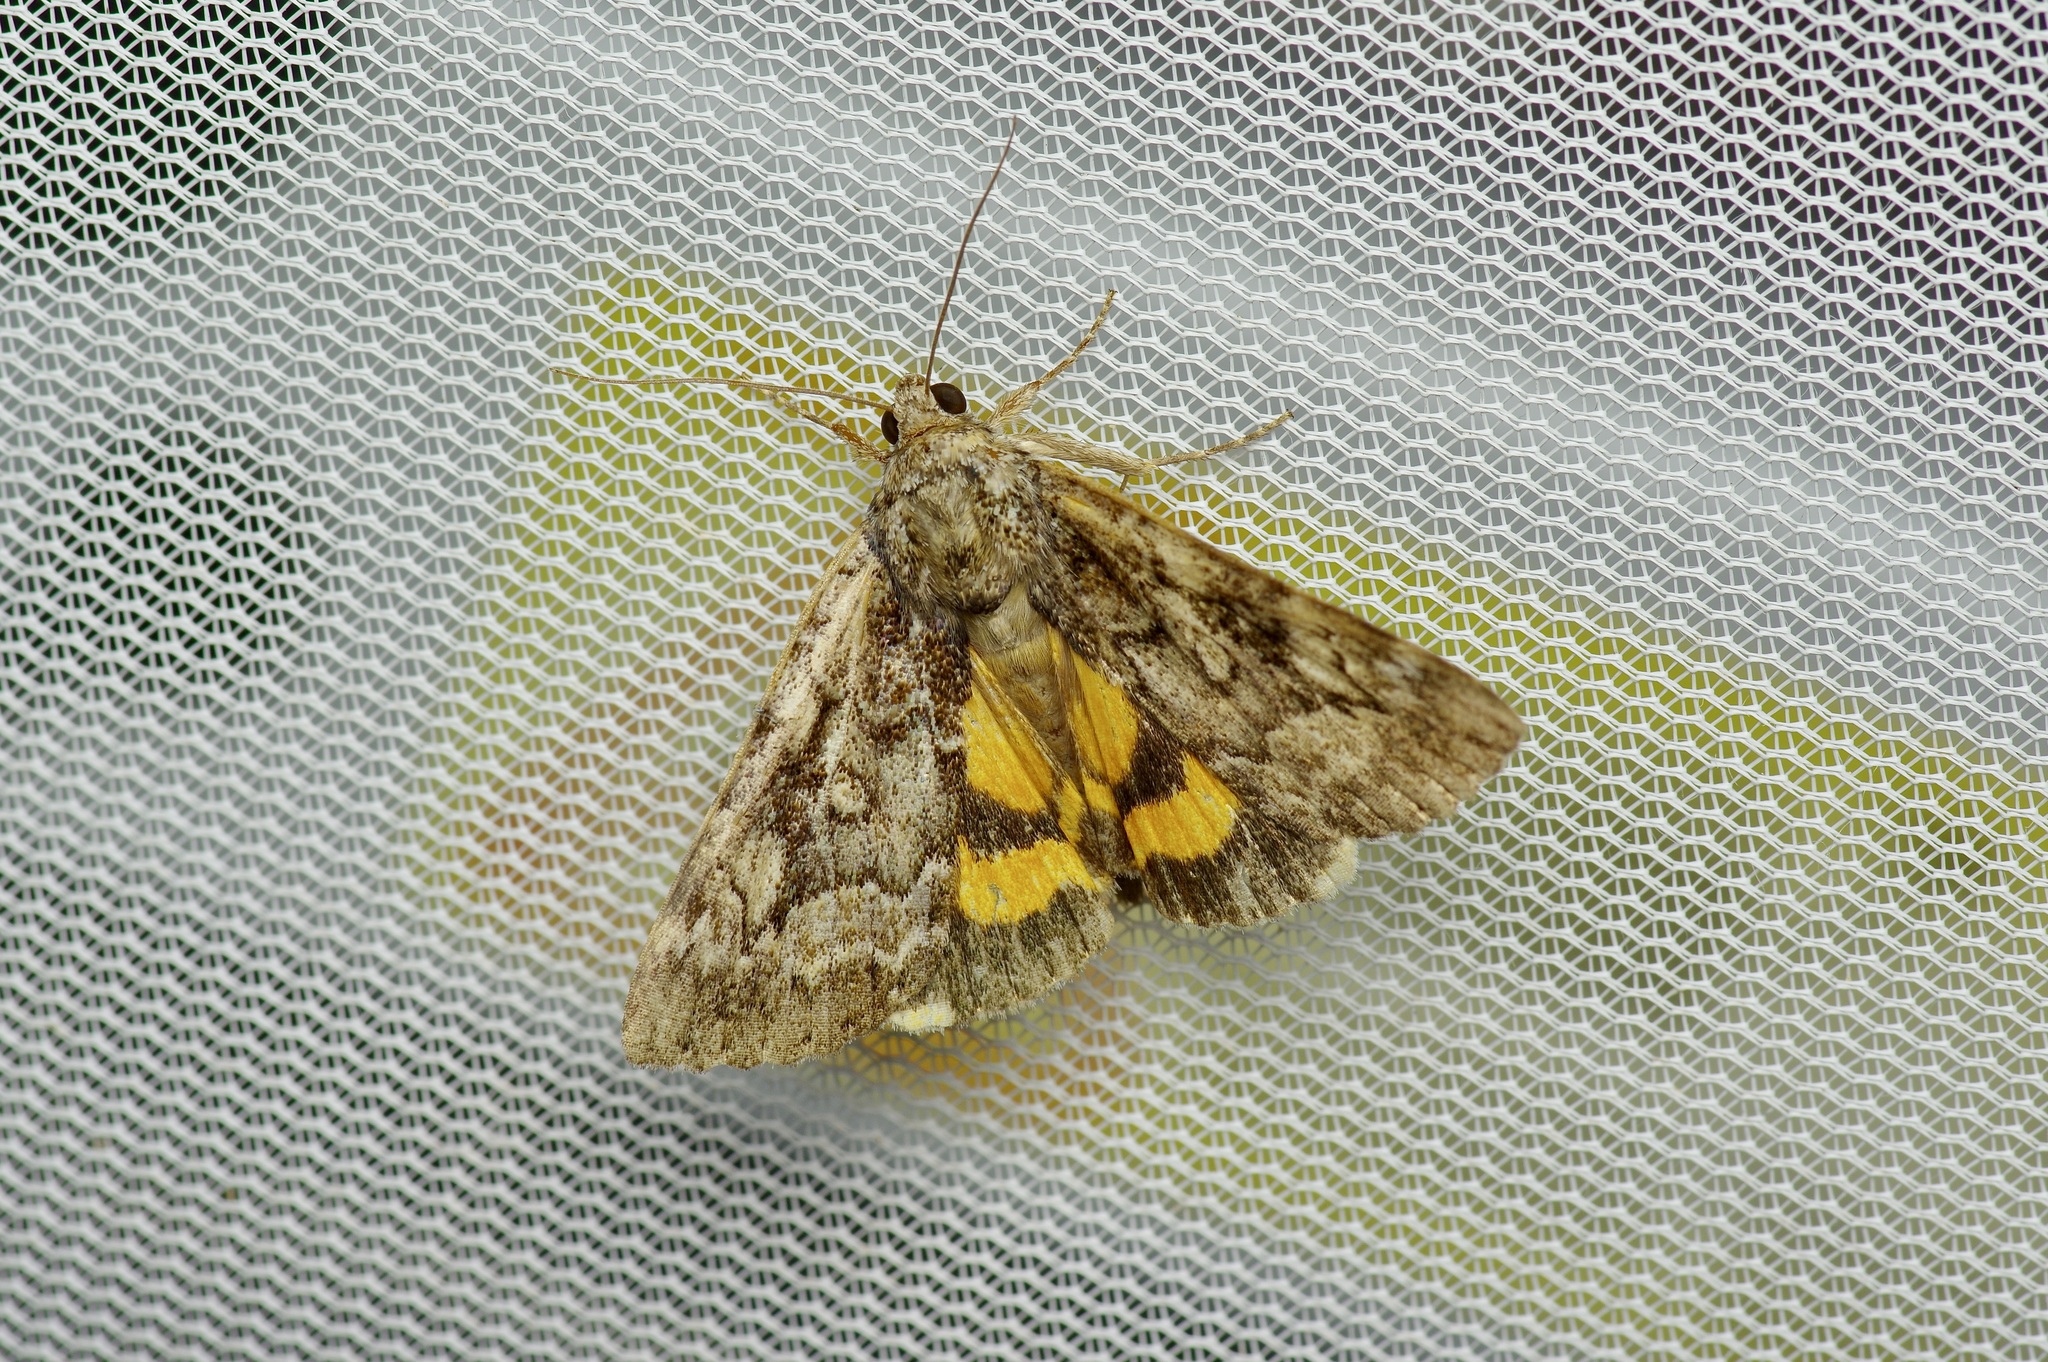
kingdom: Animalia
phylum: Arthropoda
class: Insecta
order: Lepidoptera
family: Erebidae
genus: Catocala
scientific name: Catocala minuta
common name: Little underwing
